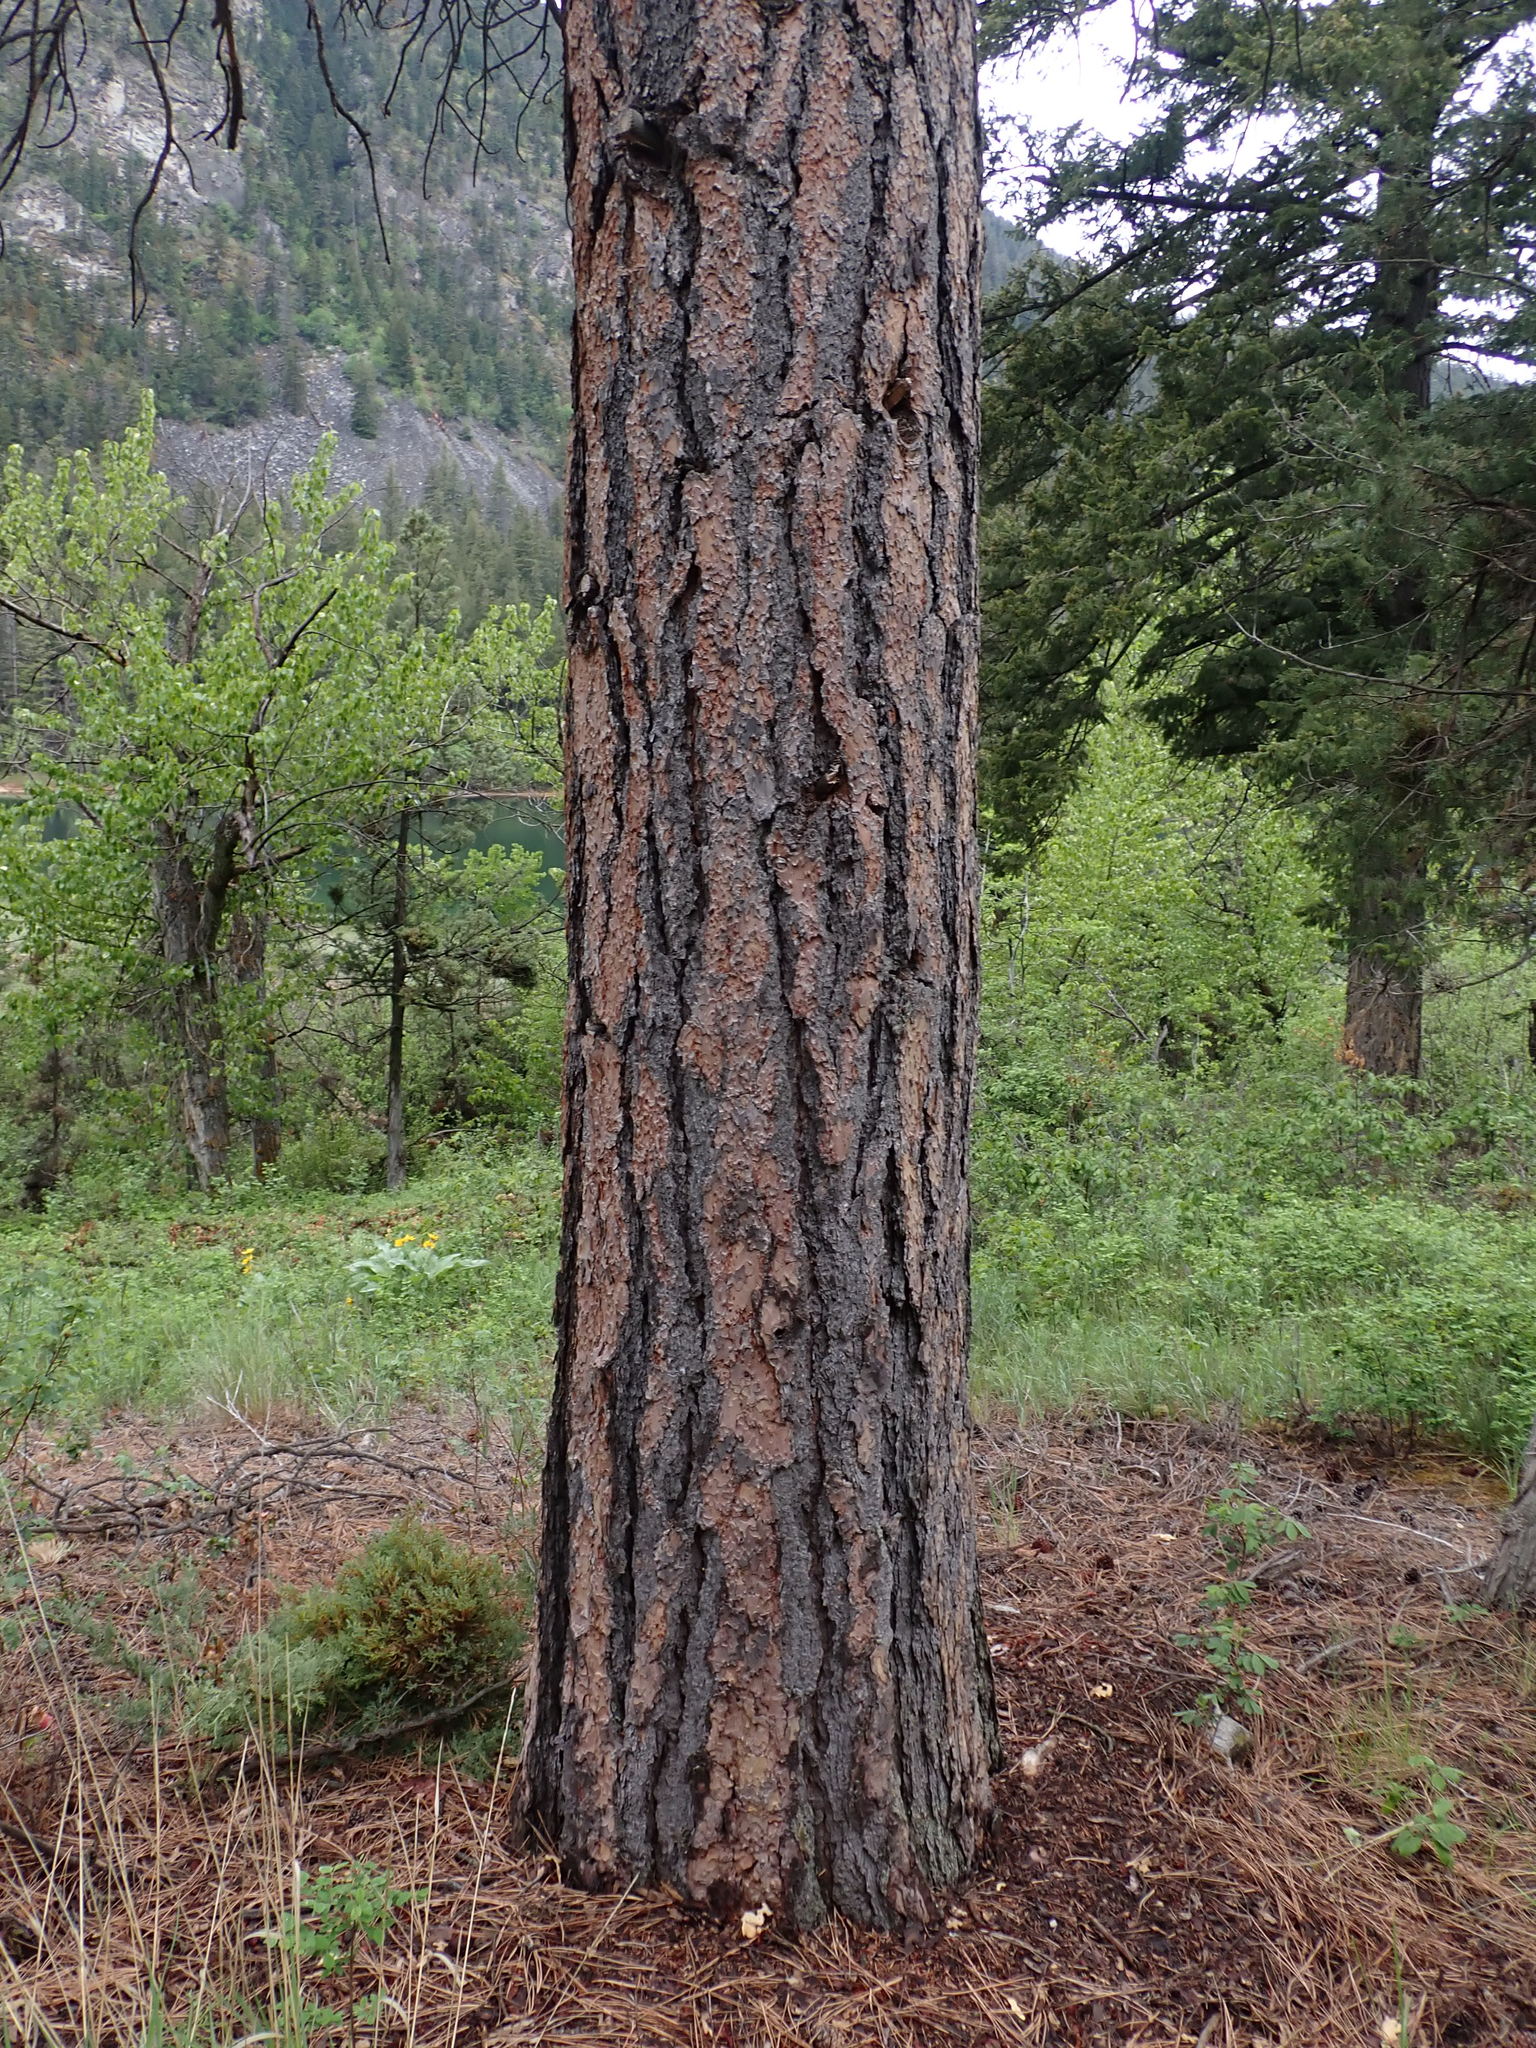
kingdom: Plantae
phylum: Tracheophyta
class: Pinopsida
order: Pinales
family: Pinaceae
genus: Pinus
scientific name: Pinus ponderosa
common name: Western yellow-pine
